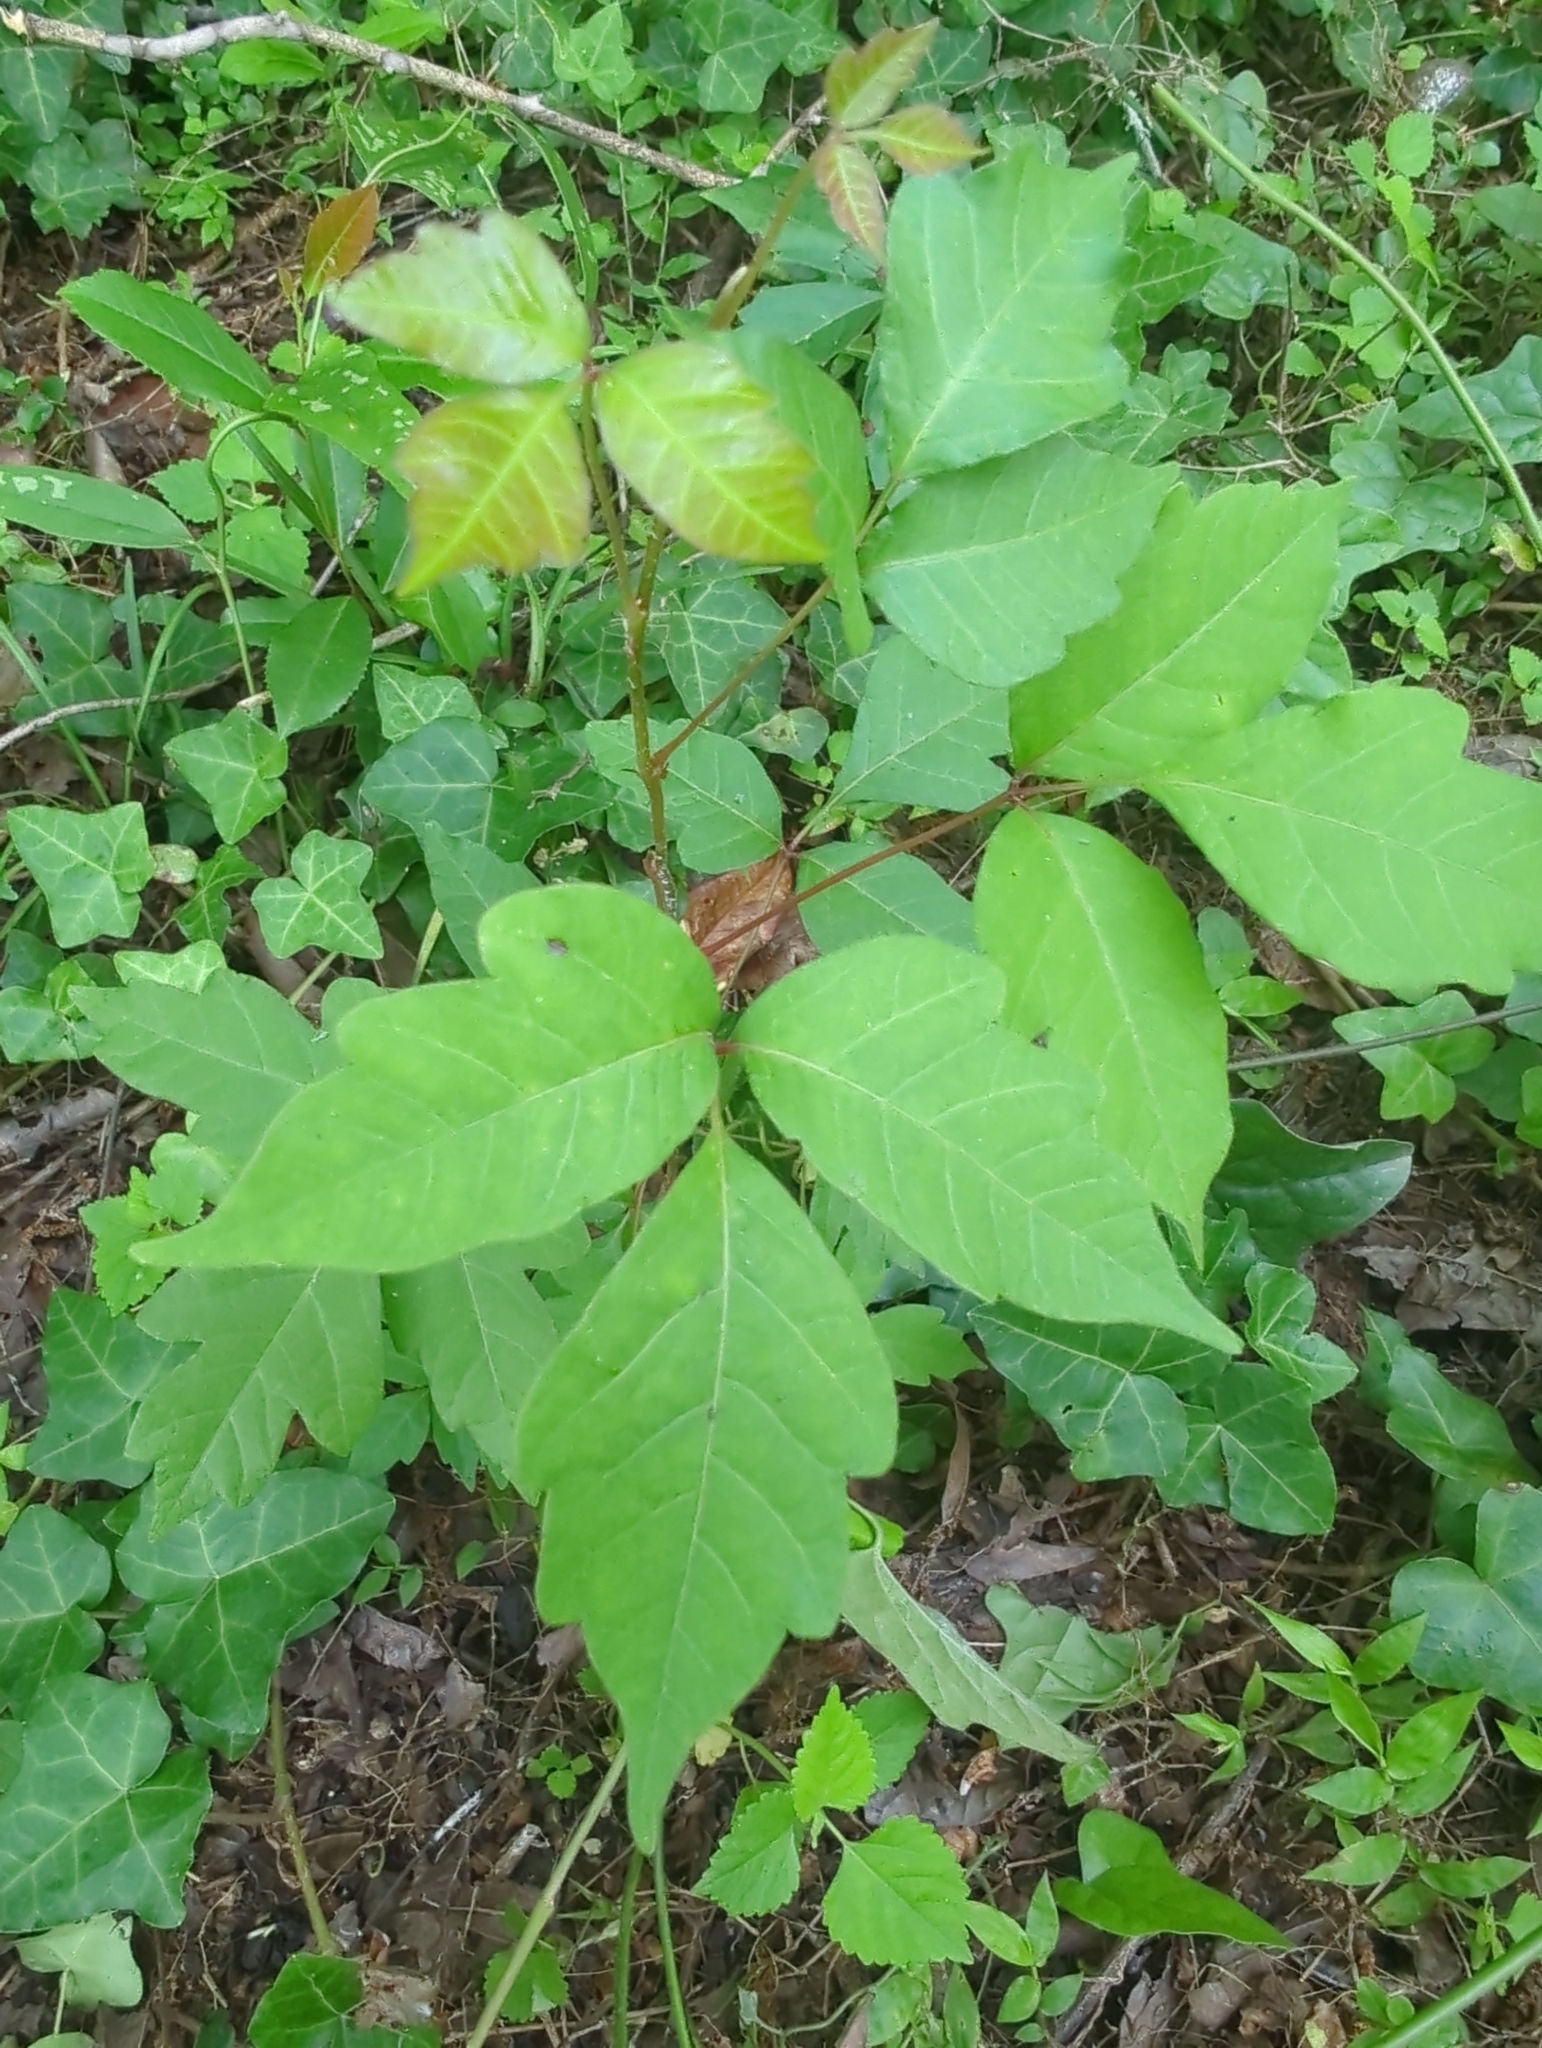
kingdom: Plantae
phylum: Tracheophyta
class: Magnoliopsida
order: Sapindales
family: Anacardiaceae
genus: Toxicodendron
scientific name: Toxicodendron radicans
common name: Poison ivy
